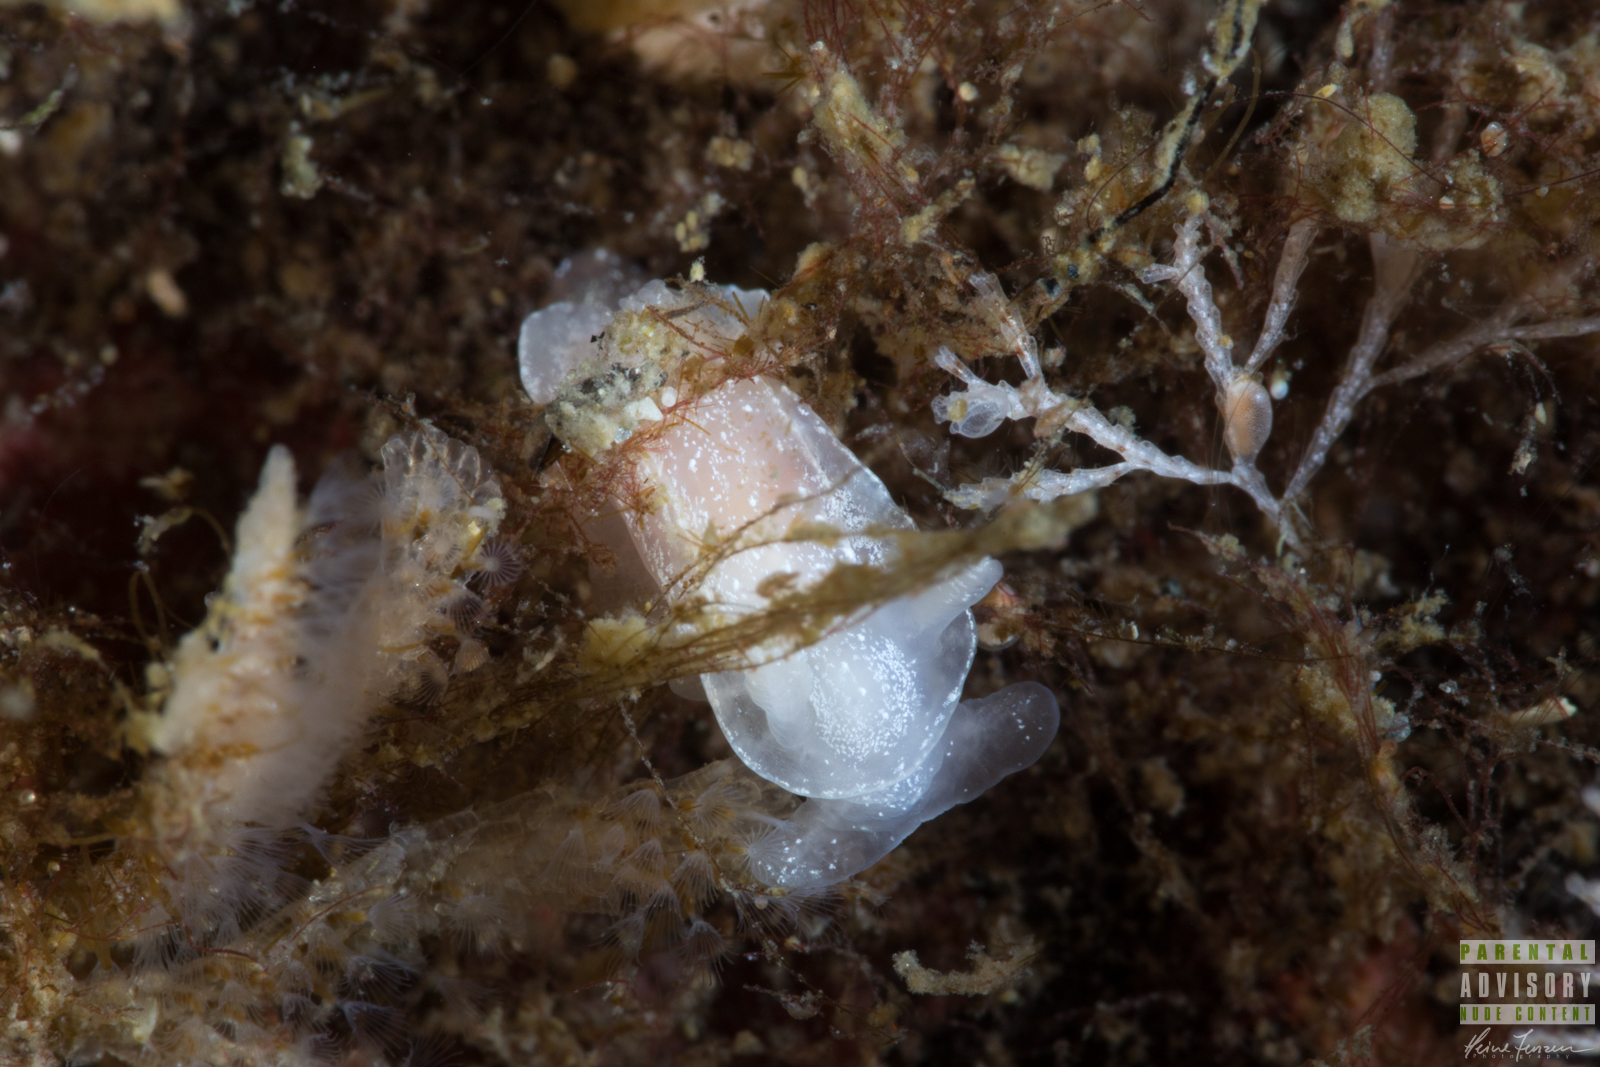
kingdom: Animalia
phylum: Mollusca
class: Gastropoda
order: Nudibranchia
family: Goniodorididae
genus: Okenia
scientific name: Okenia
